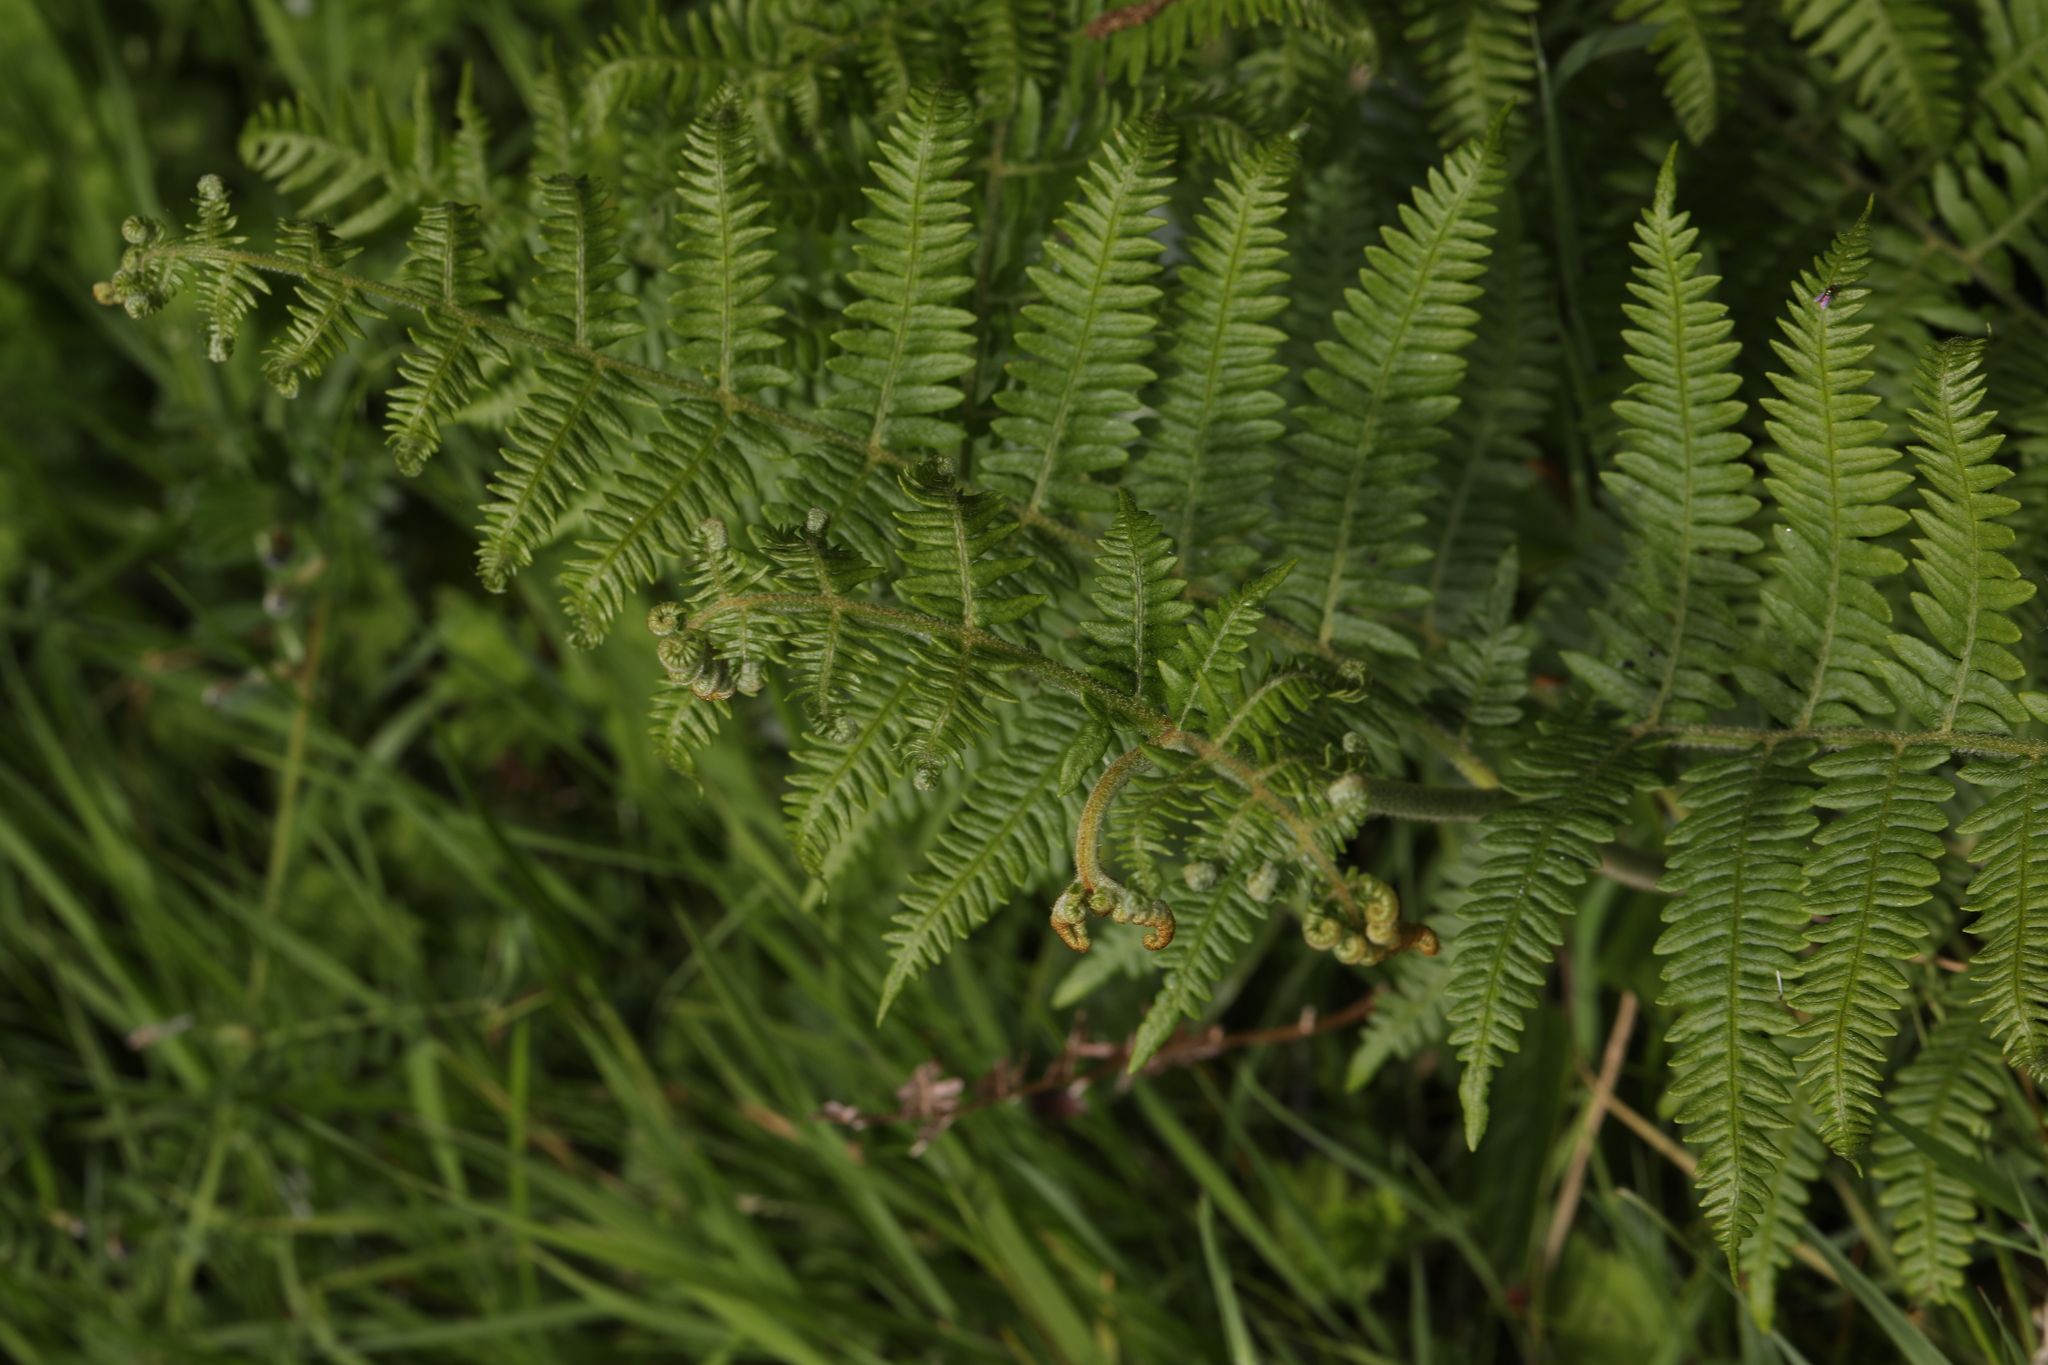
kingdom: Plantae
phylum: Tracheophyta
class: Polypodiopsida
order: Polypodiales
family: Dennstaedtiaceae
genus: Pteridium
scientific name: Pteridium aquilinum
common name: Bracken
